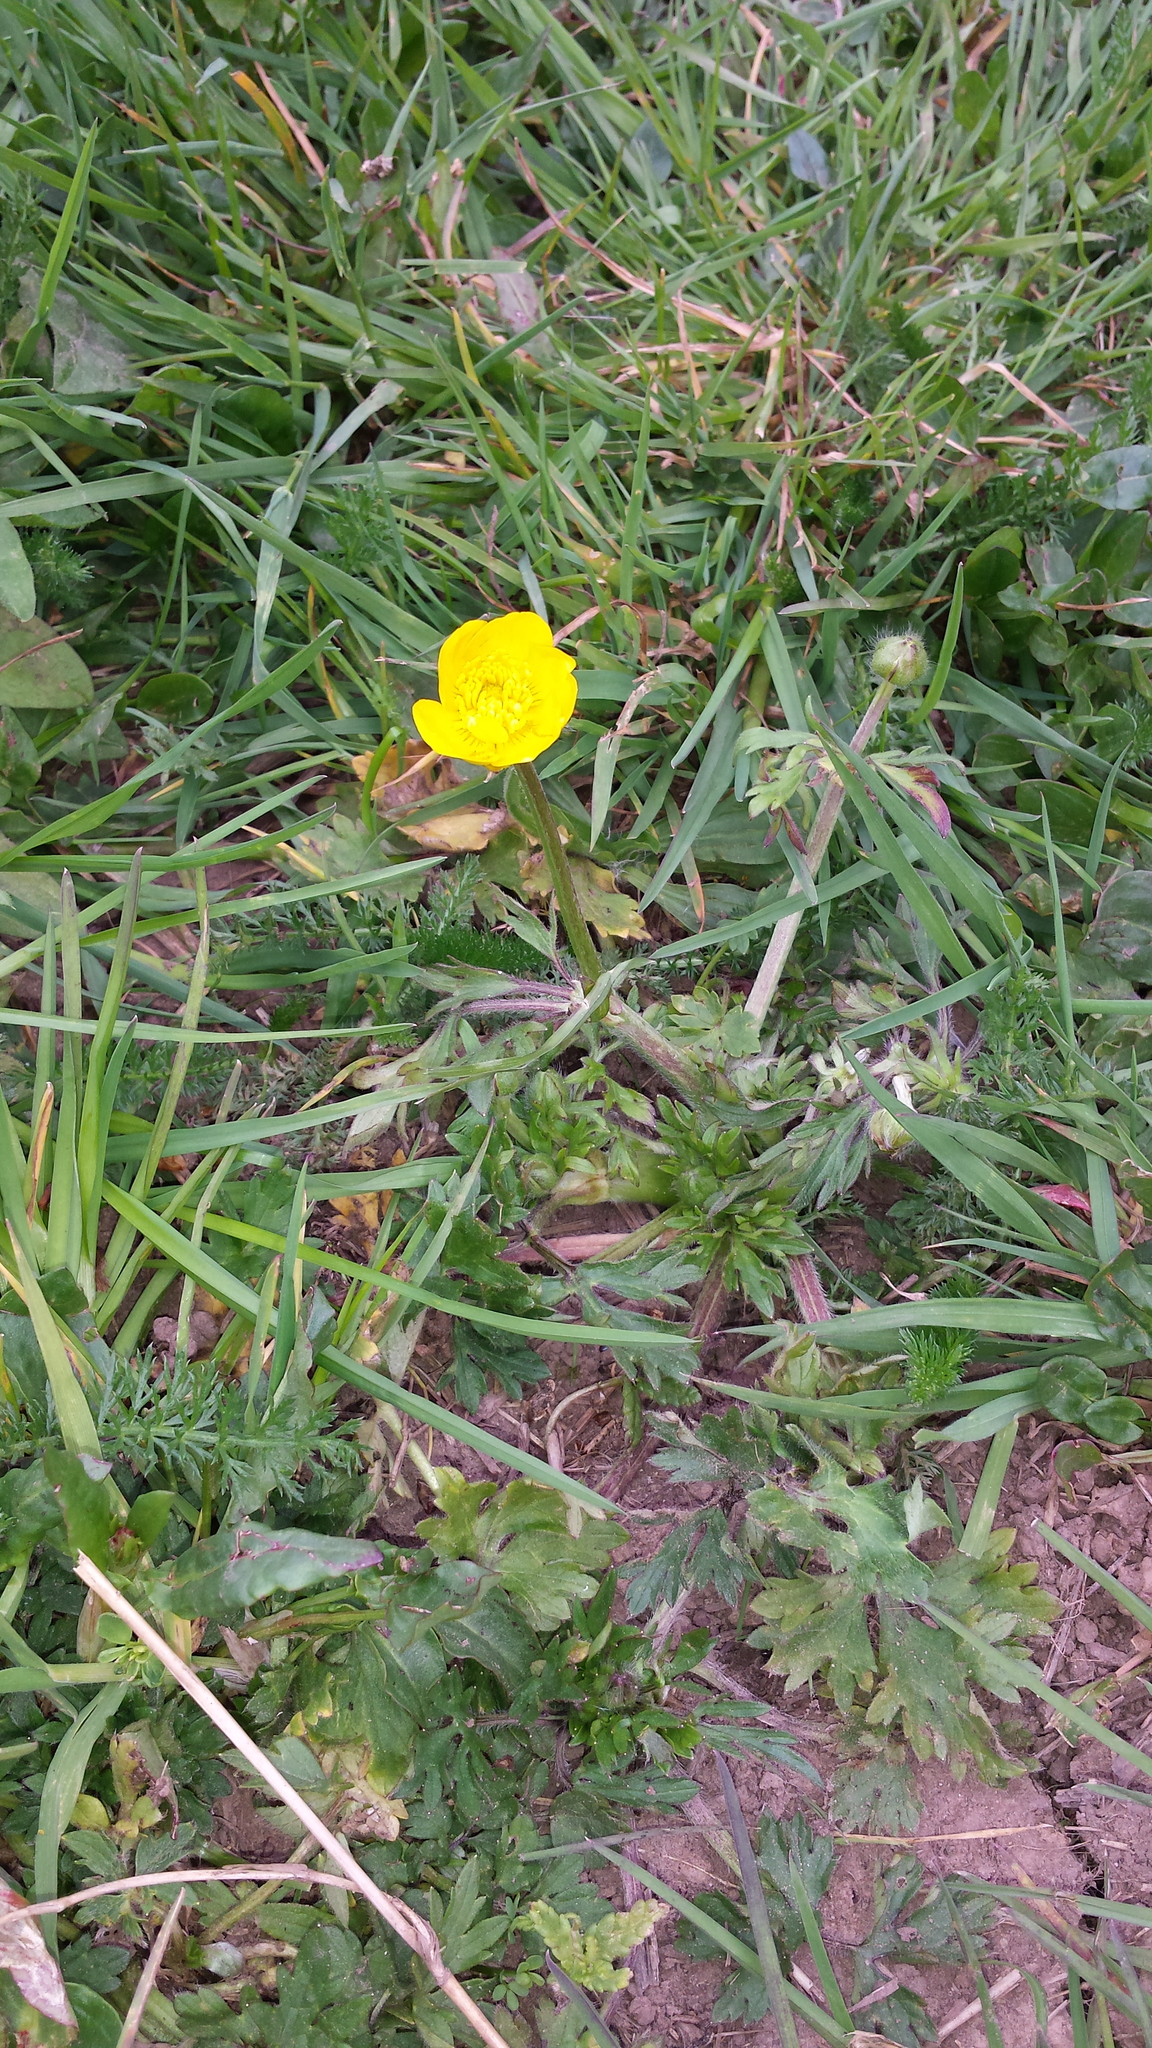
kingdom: Plantae
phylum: Tracheophyta
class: Magnoliopsida
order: Ranunculales
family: Ranunculaceae
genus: Ranunculus
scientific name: Ranunculus repens
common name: Creeping buttercup
